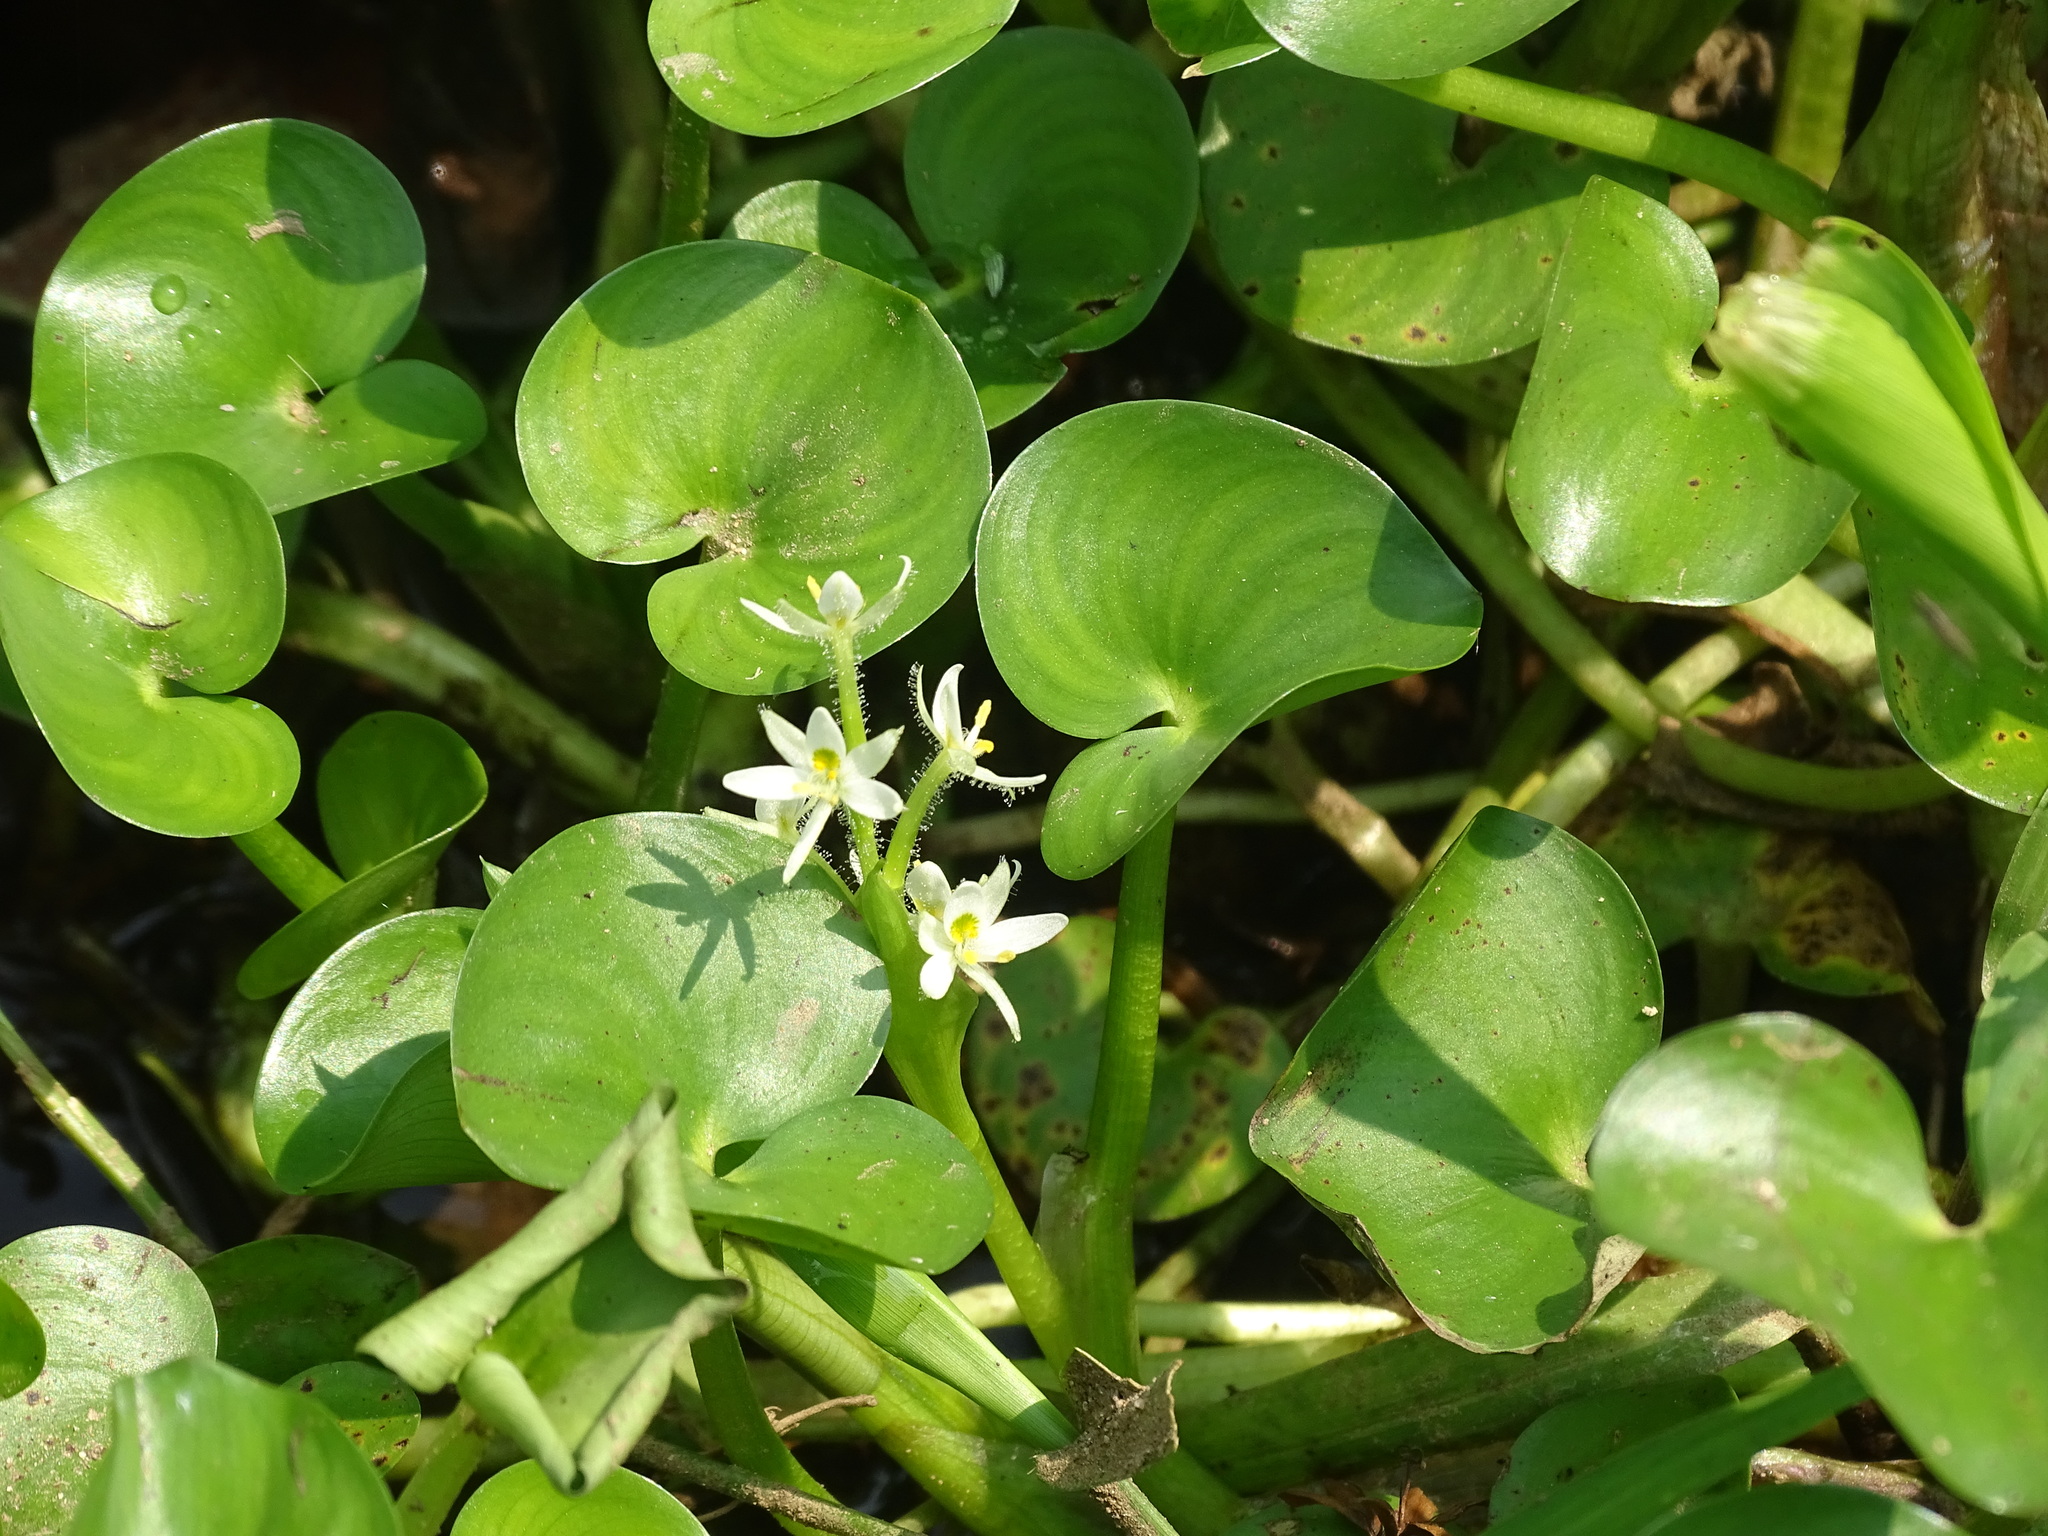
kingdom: Plantae
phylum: Tracheophyta
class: Liliopsida
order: Commelinales
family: Pontederiaceae
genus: Heteranthera
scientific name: Heteranthera reniformis
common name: Kidneyleaf mudplantain
